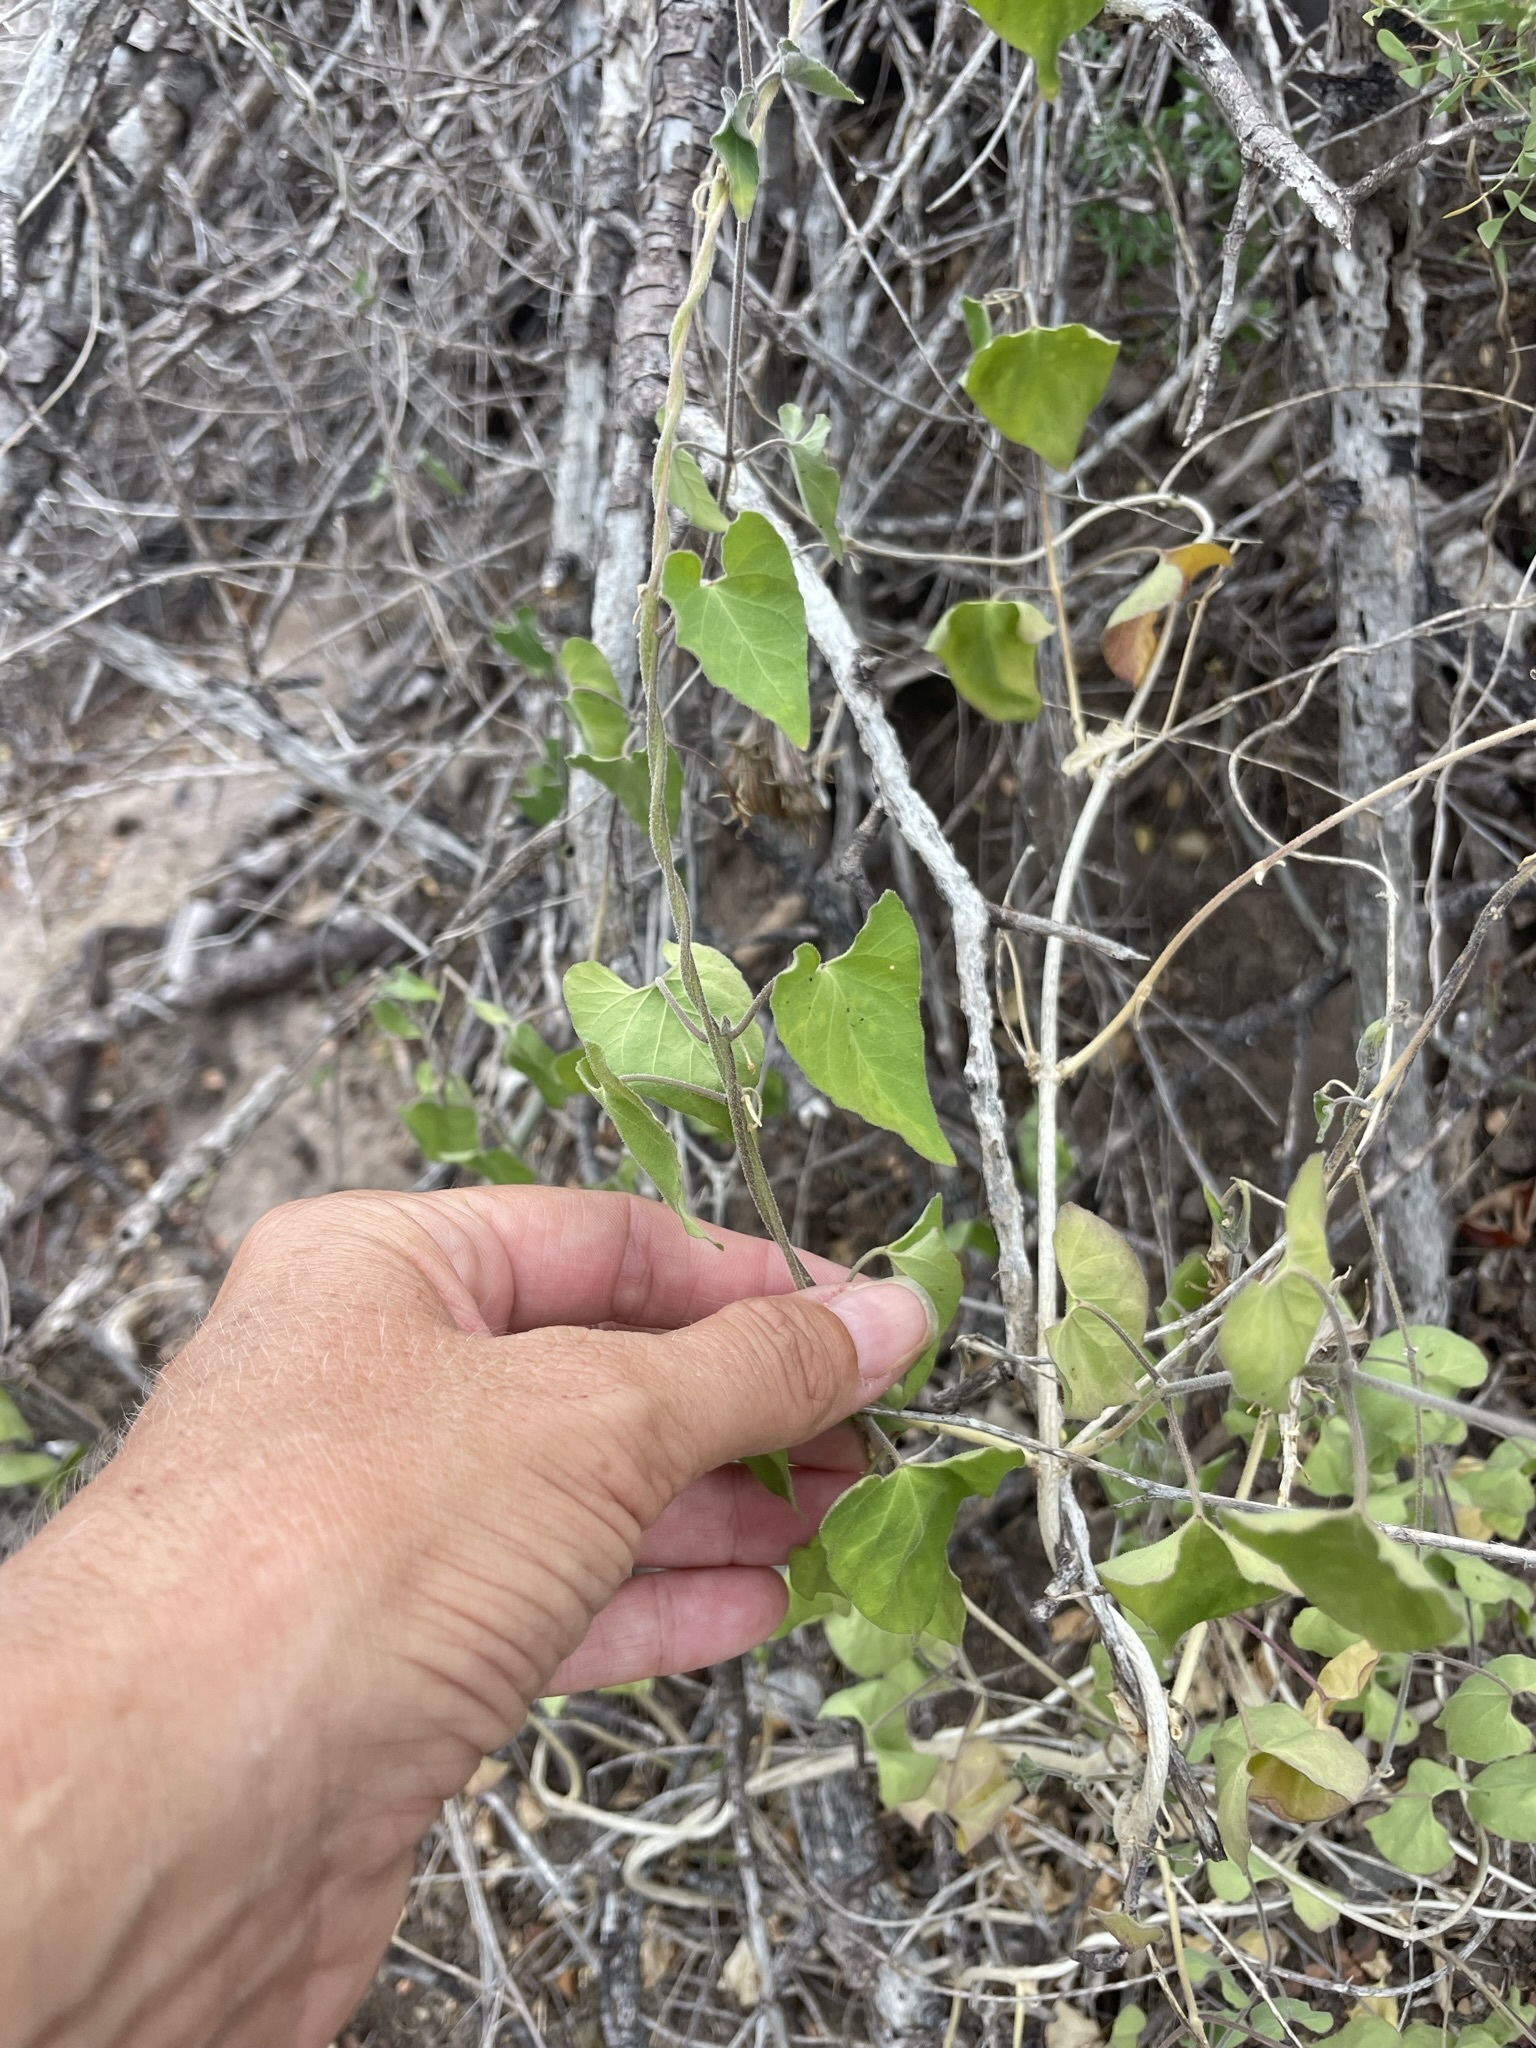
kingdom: Plantae
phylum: Tracheophyta
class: Magnoliopsida
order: Gentianales
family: Apocynaceae
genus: Metastelma
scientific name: Metastelma pringlei
